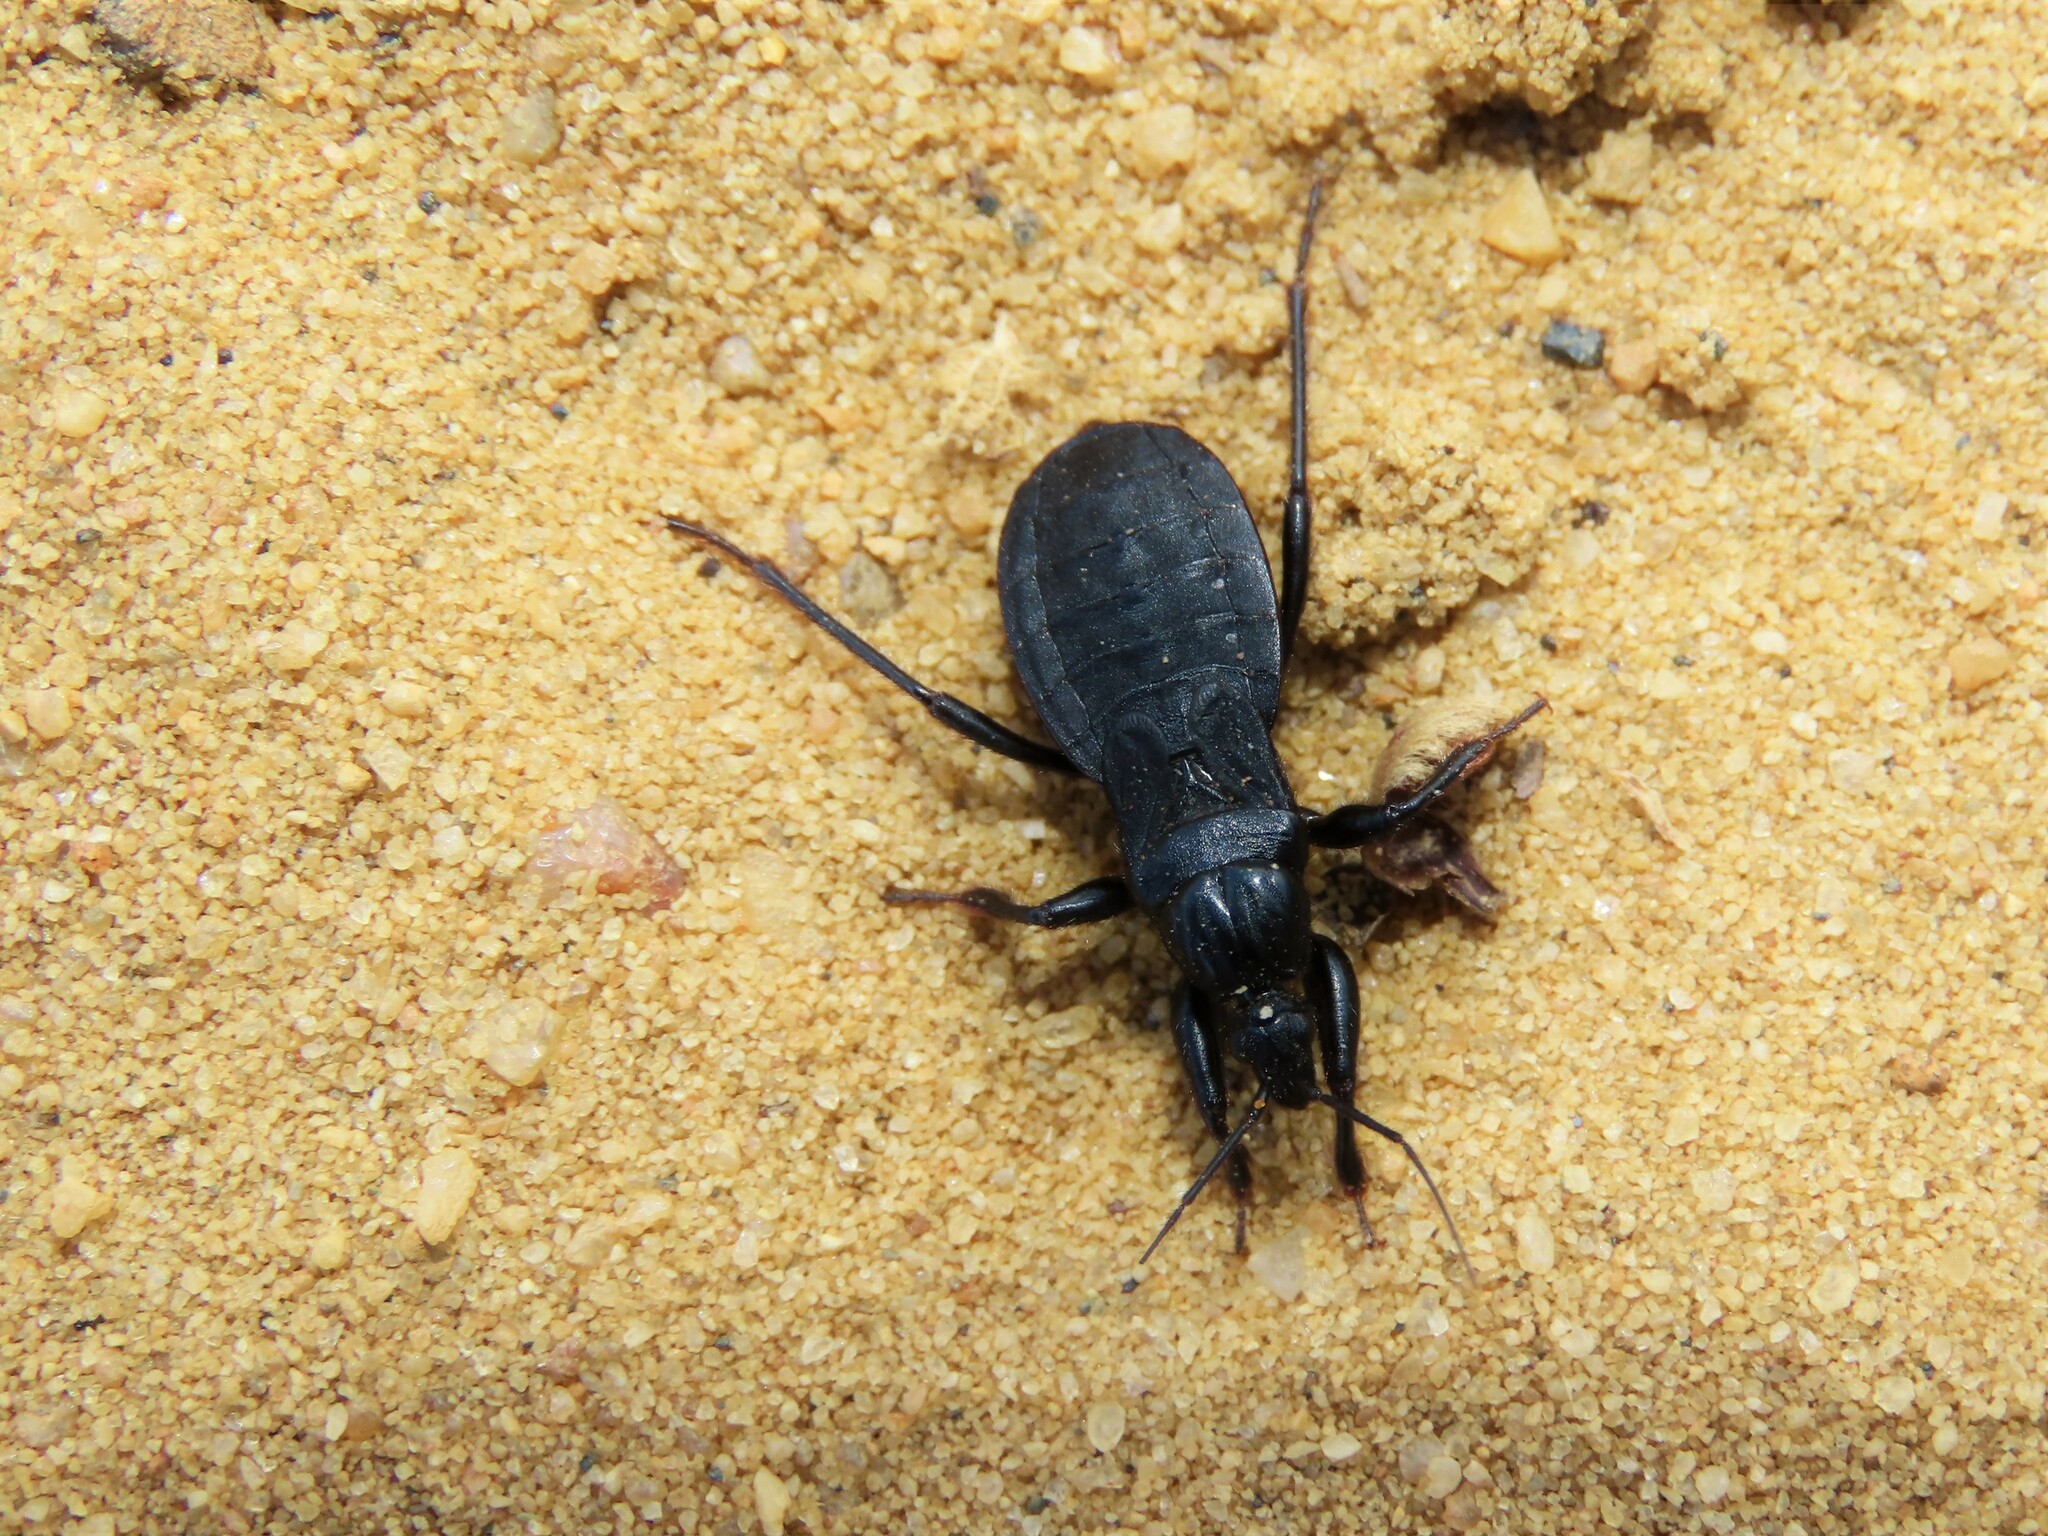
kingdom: Animalia
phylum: Arthropoda
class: Insecta
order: Hemiptera
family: Reduviidae
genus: Melanolestes
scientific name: Melanolestes picipes
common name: Assassin bug
